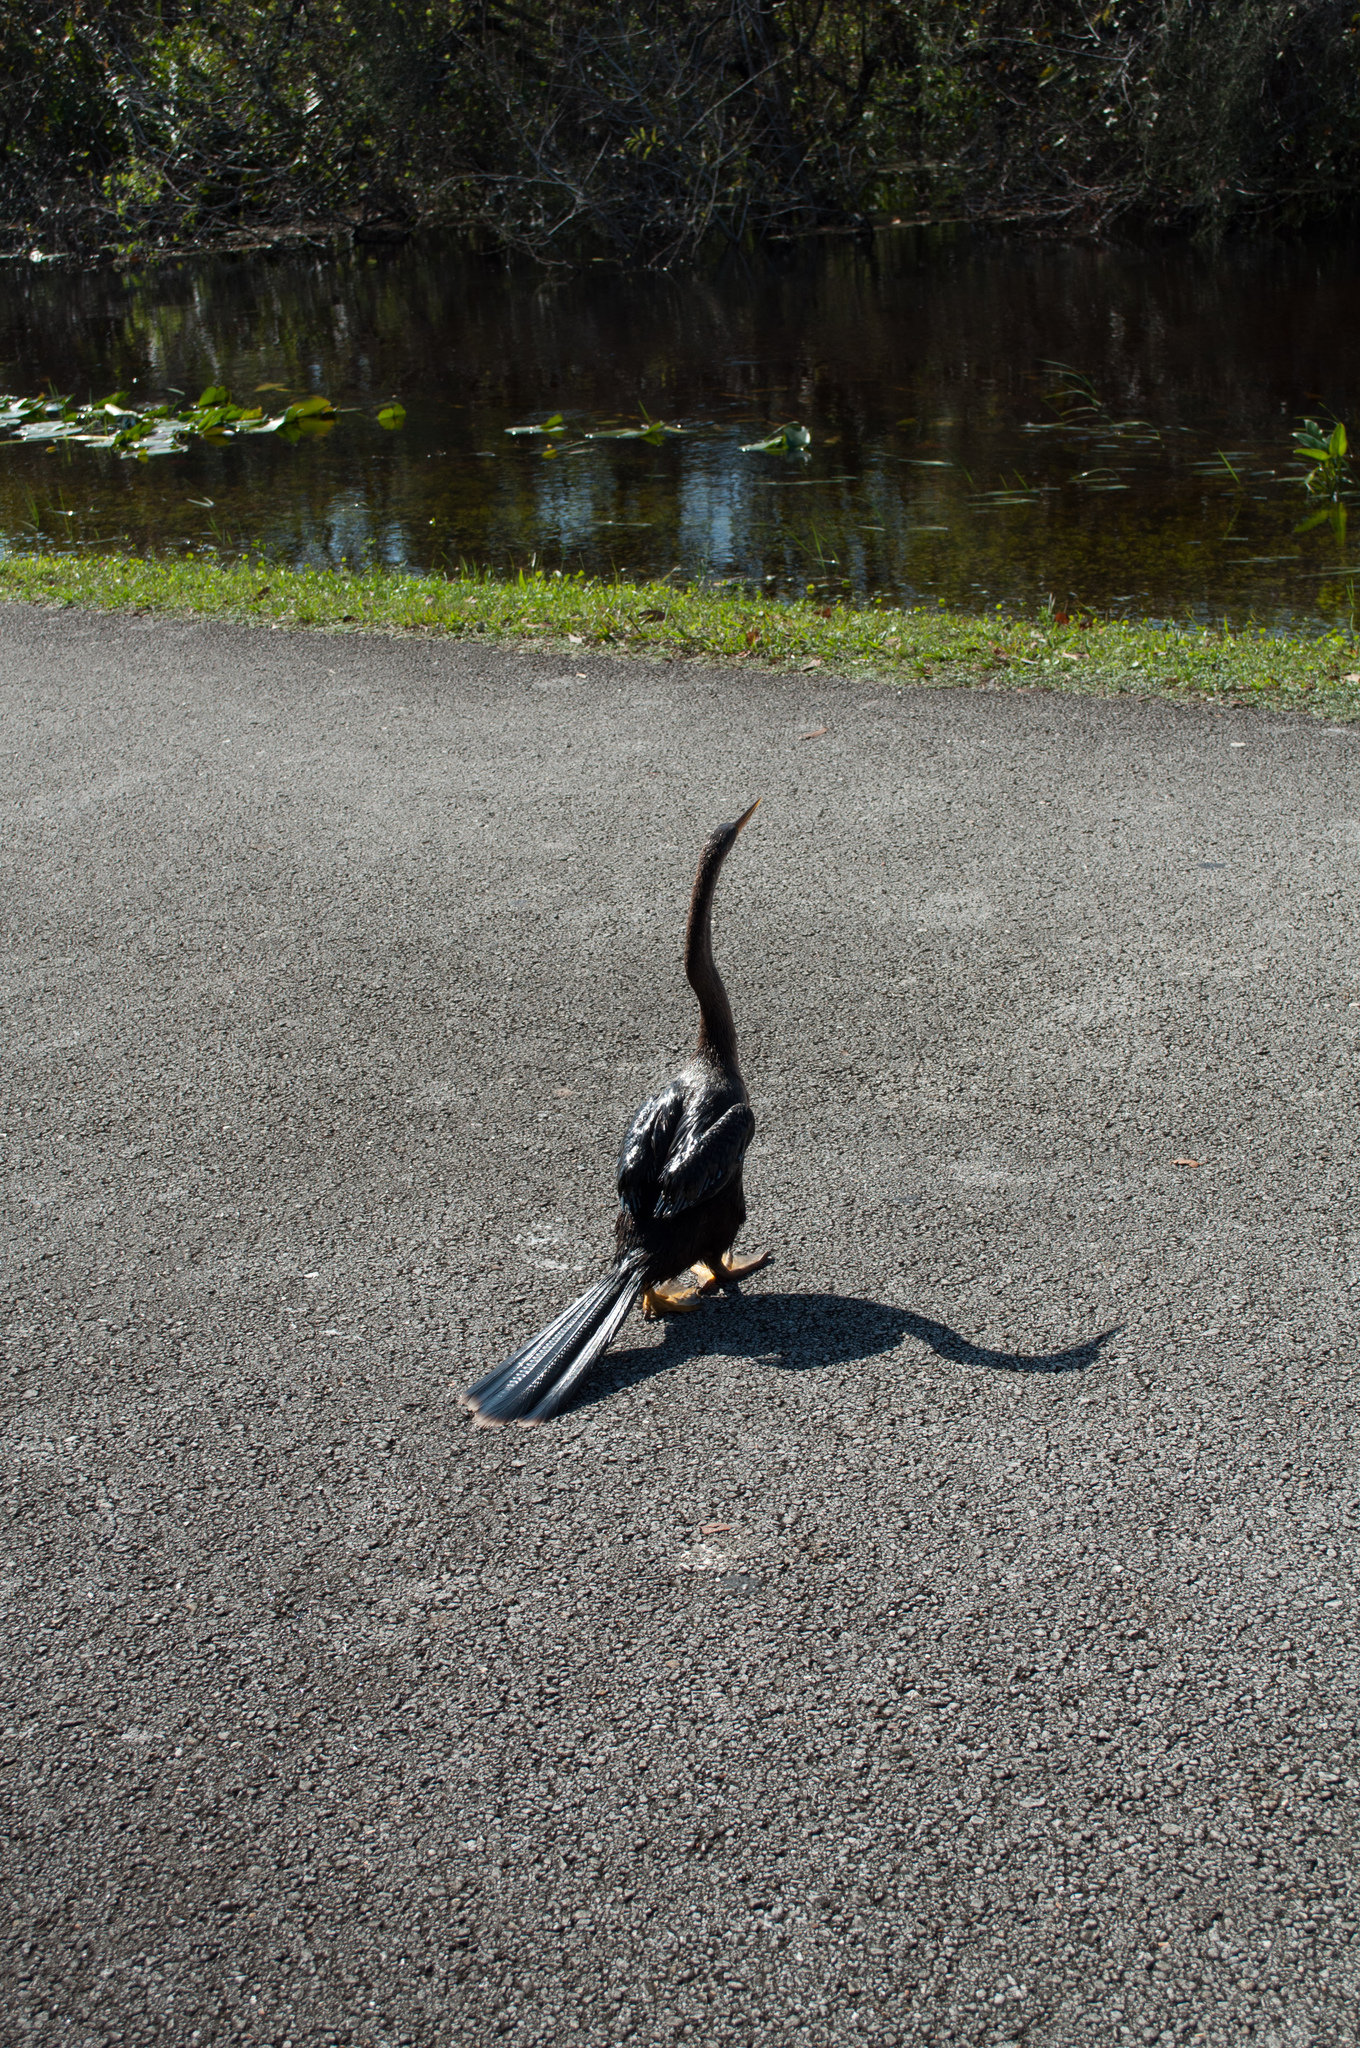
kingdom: Animalia
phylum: Chordata
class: Aves
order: Suliformes
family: Anhingidae
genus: Anhinga
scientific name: Anhinga anhinga
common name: Anhinga
